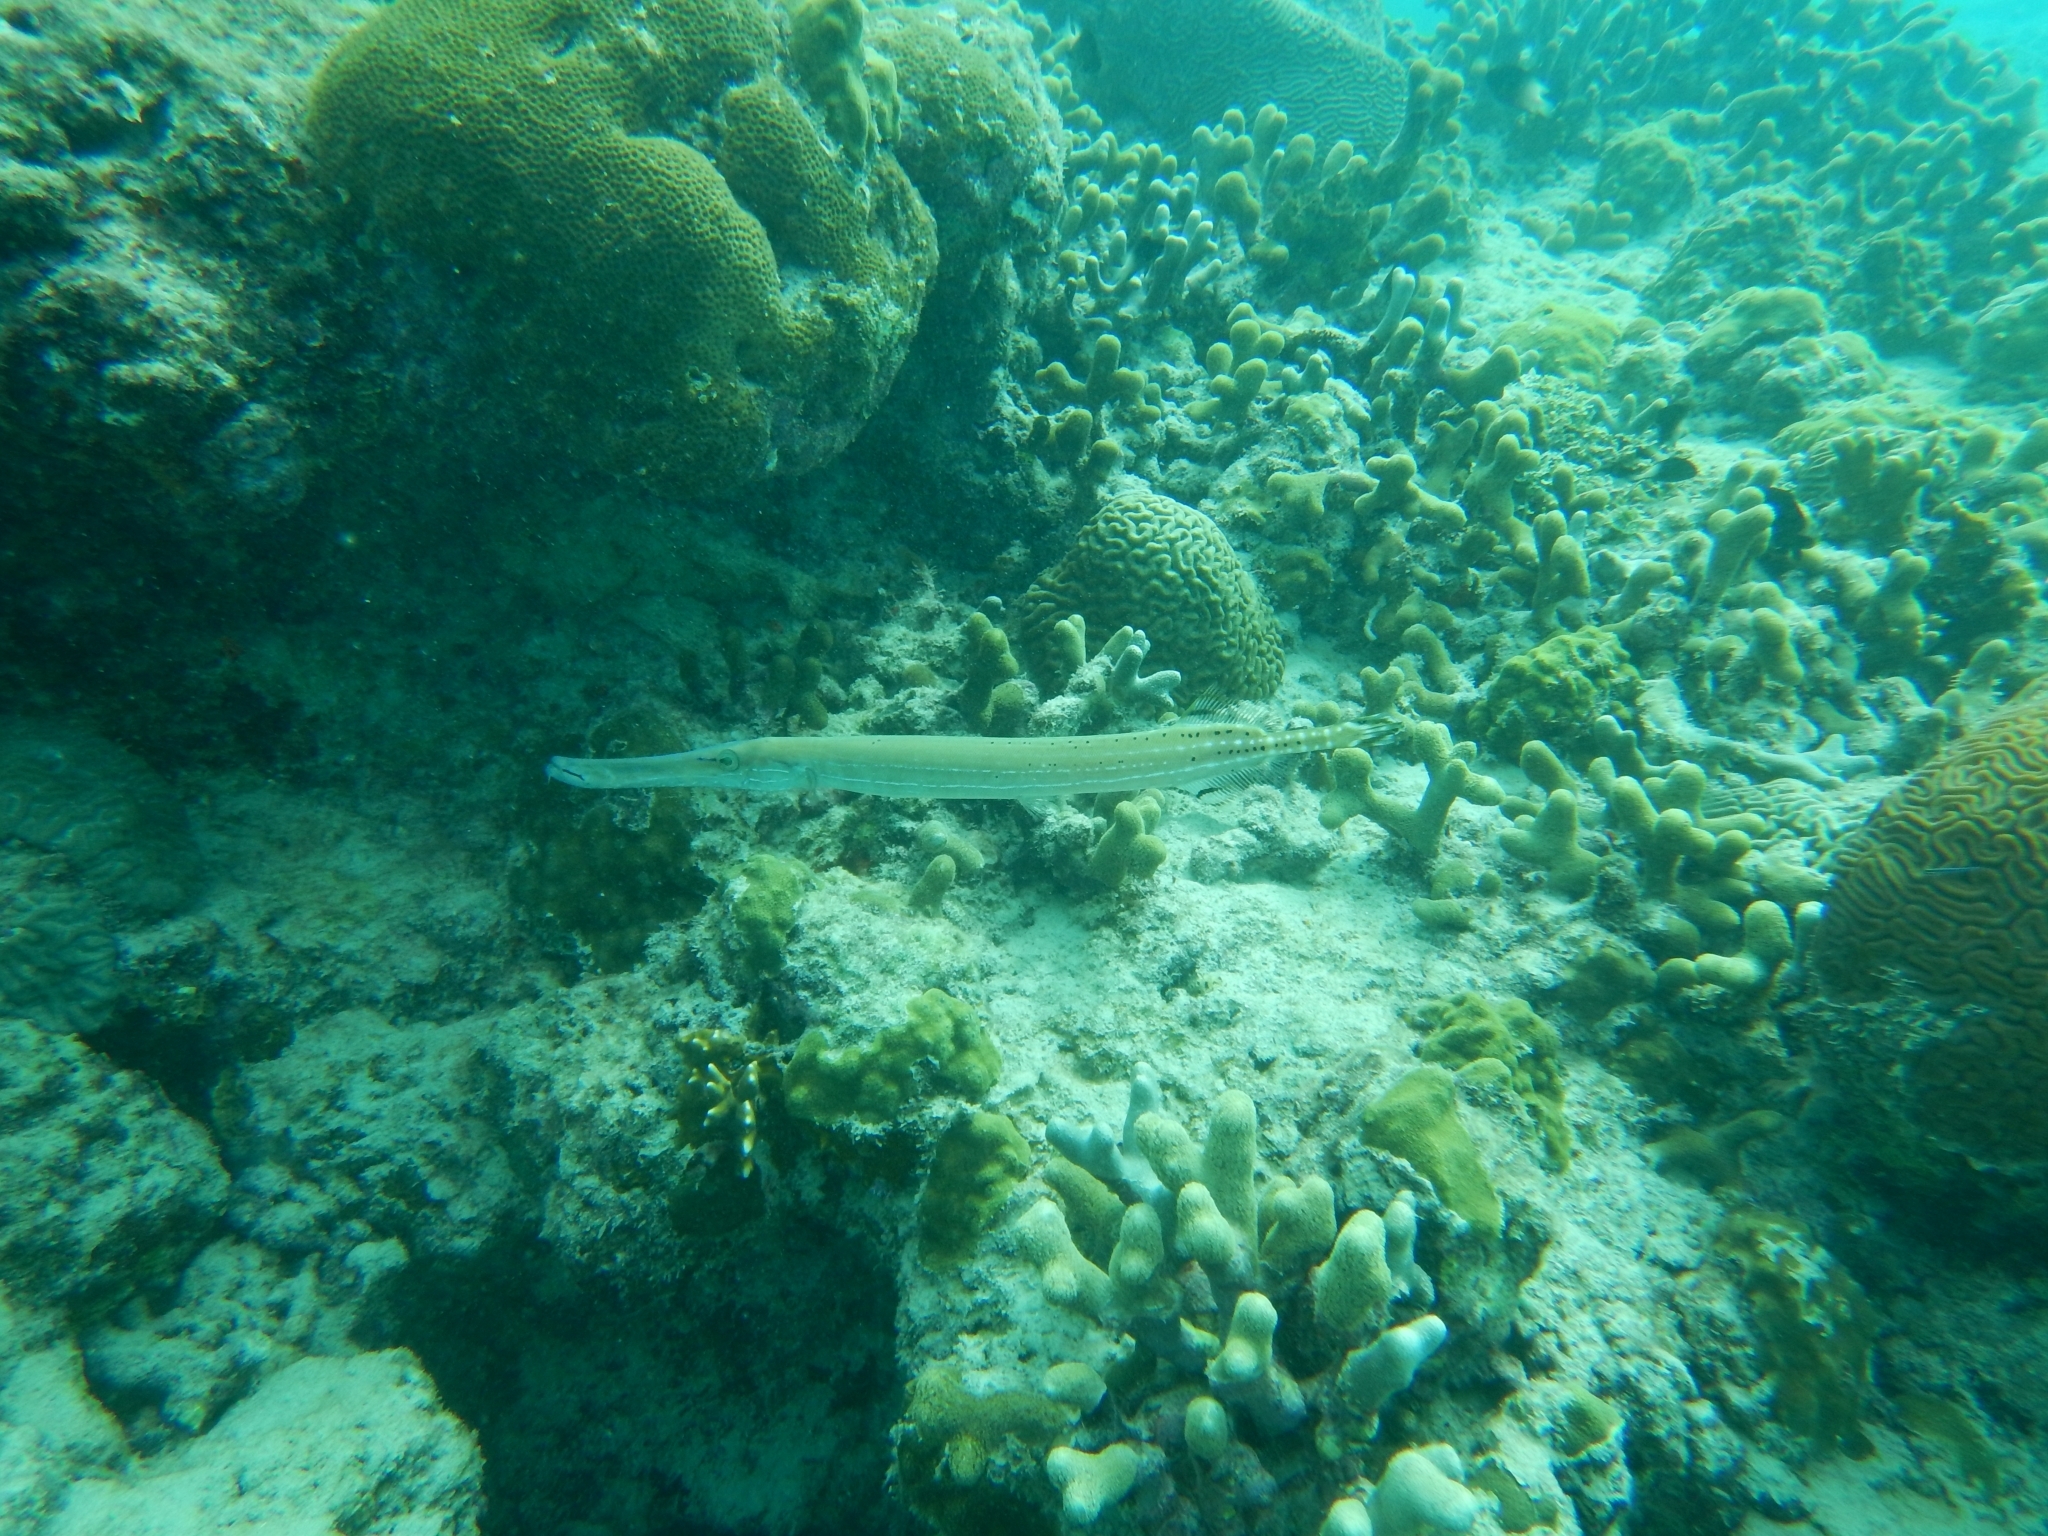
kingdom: Animalia
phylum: Chordata
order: Syngnathiformes
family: Aulostomidae
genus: Aulostomus
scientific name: Aulostomus maculatus
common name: West atlantic trumpetfish
